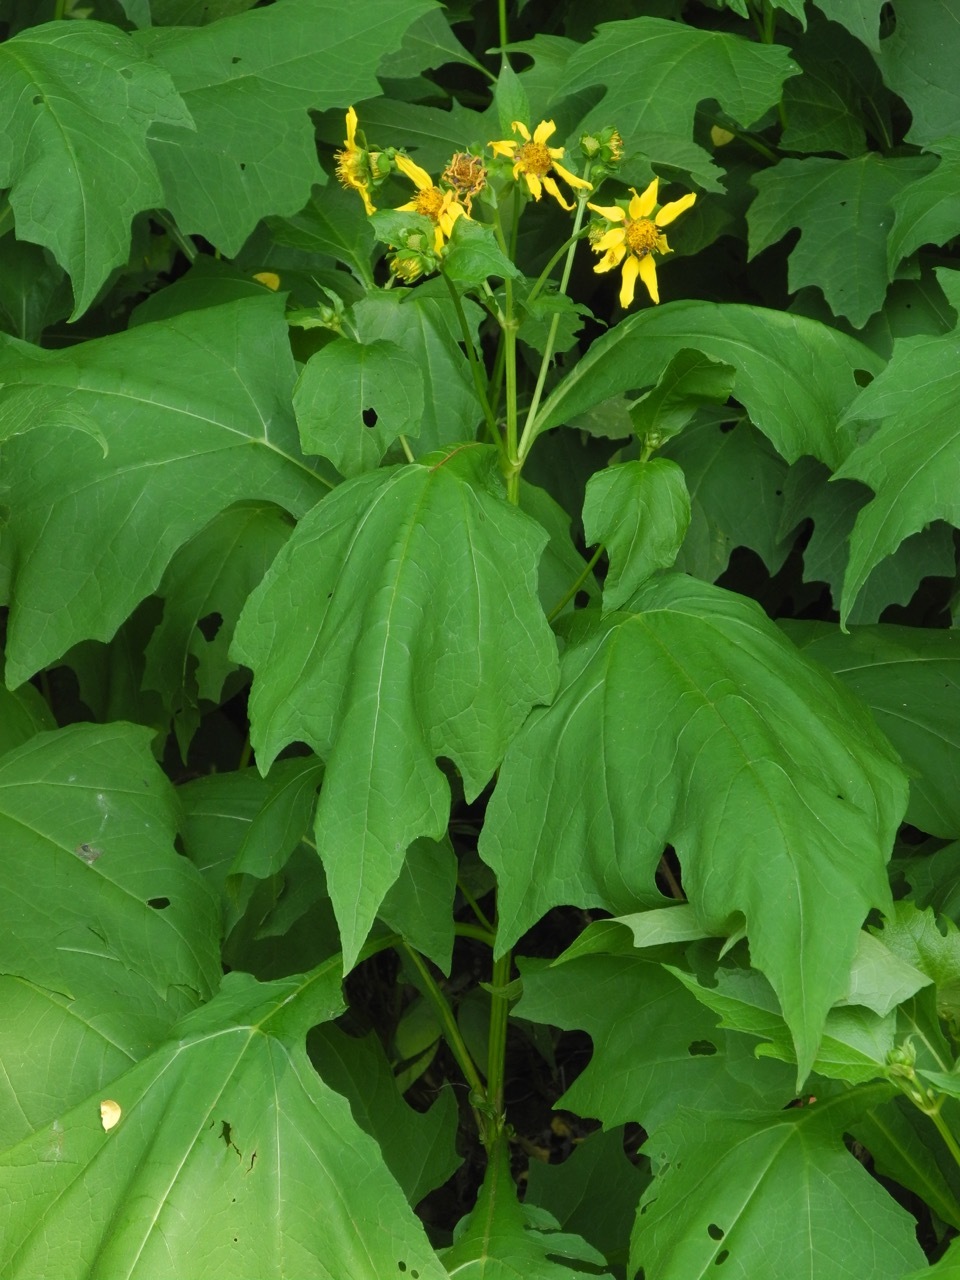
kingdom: Plantae
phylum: Tracheophyta
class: Magnoliopsida
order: Asterales
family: Asteraceae
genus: Smallanthus
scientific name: Smallanthus uvedalia
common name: Bear's-foot
